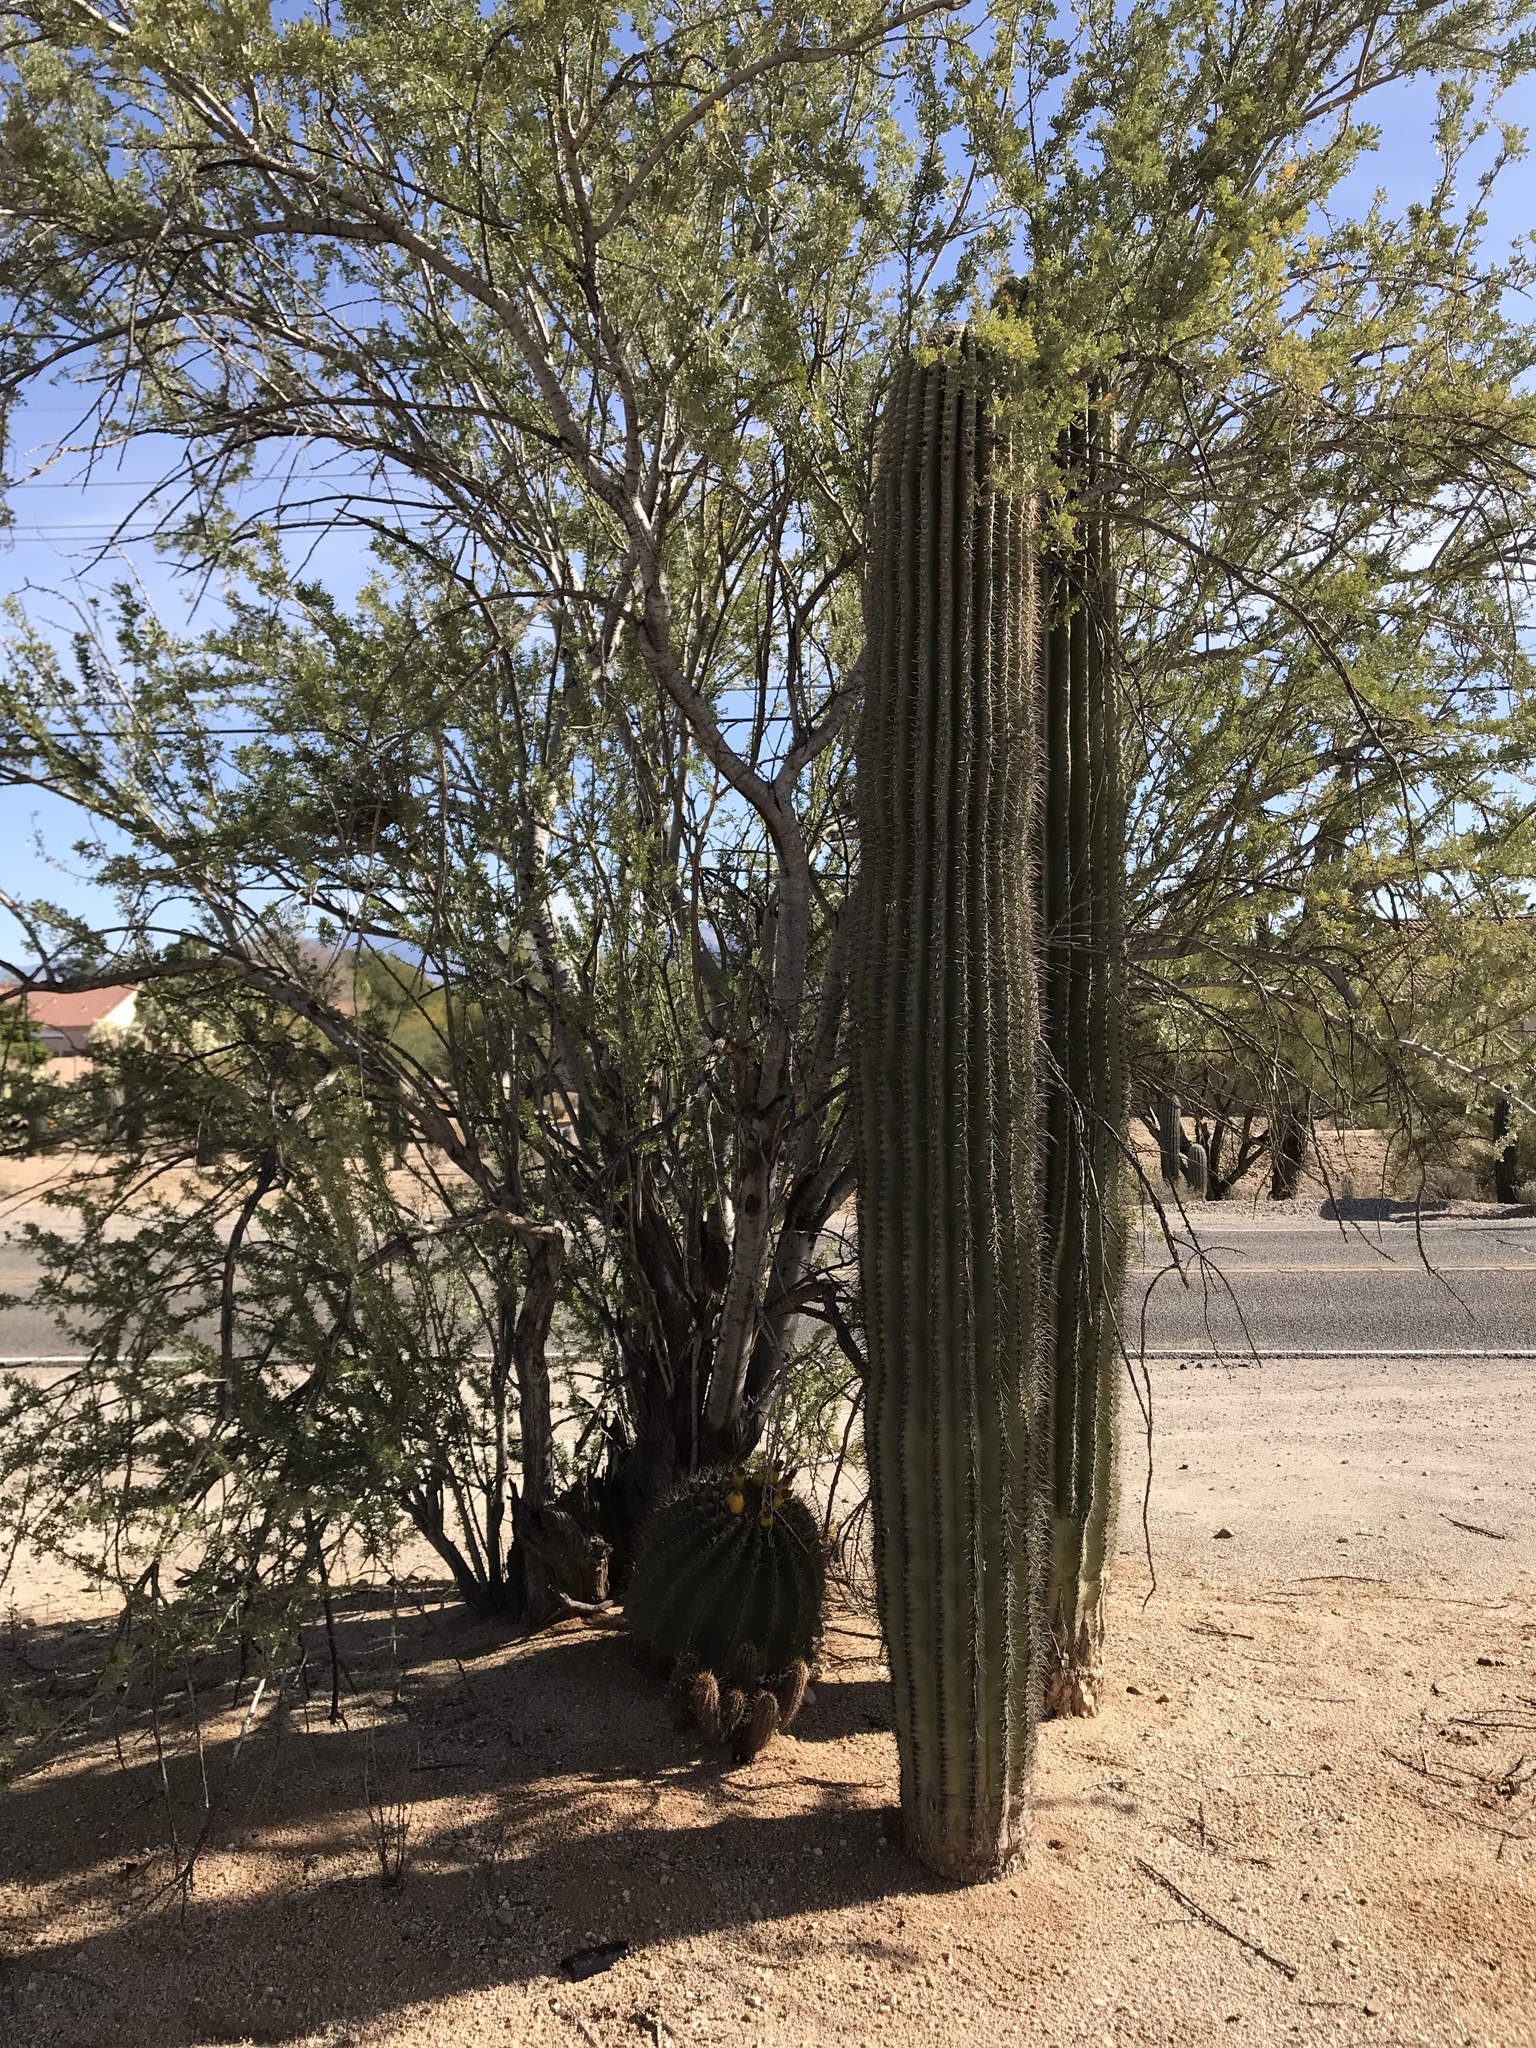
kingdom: Plantae
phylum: Tracheophyta
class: Magnoliopsida
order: Caryophyllales
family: Cactaceae
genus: Carnegiea
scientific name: Carnegiea gigantea
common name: Saguaro
